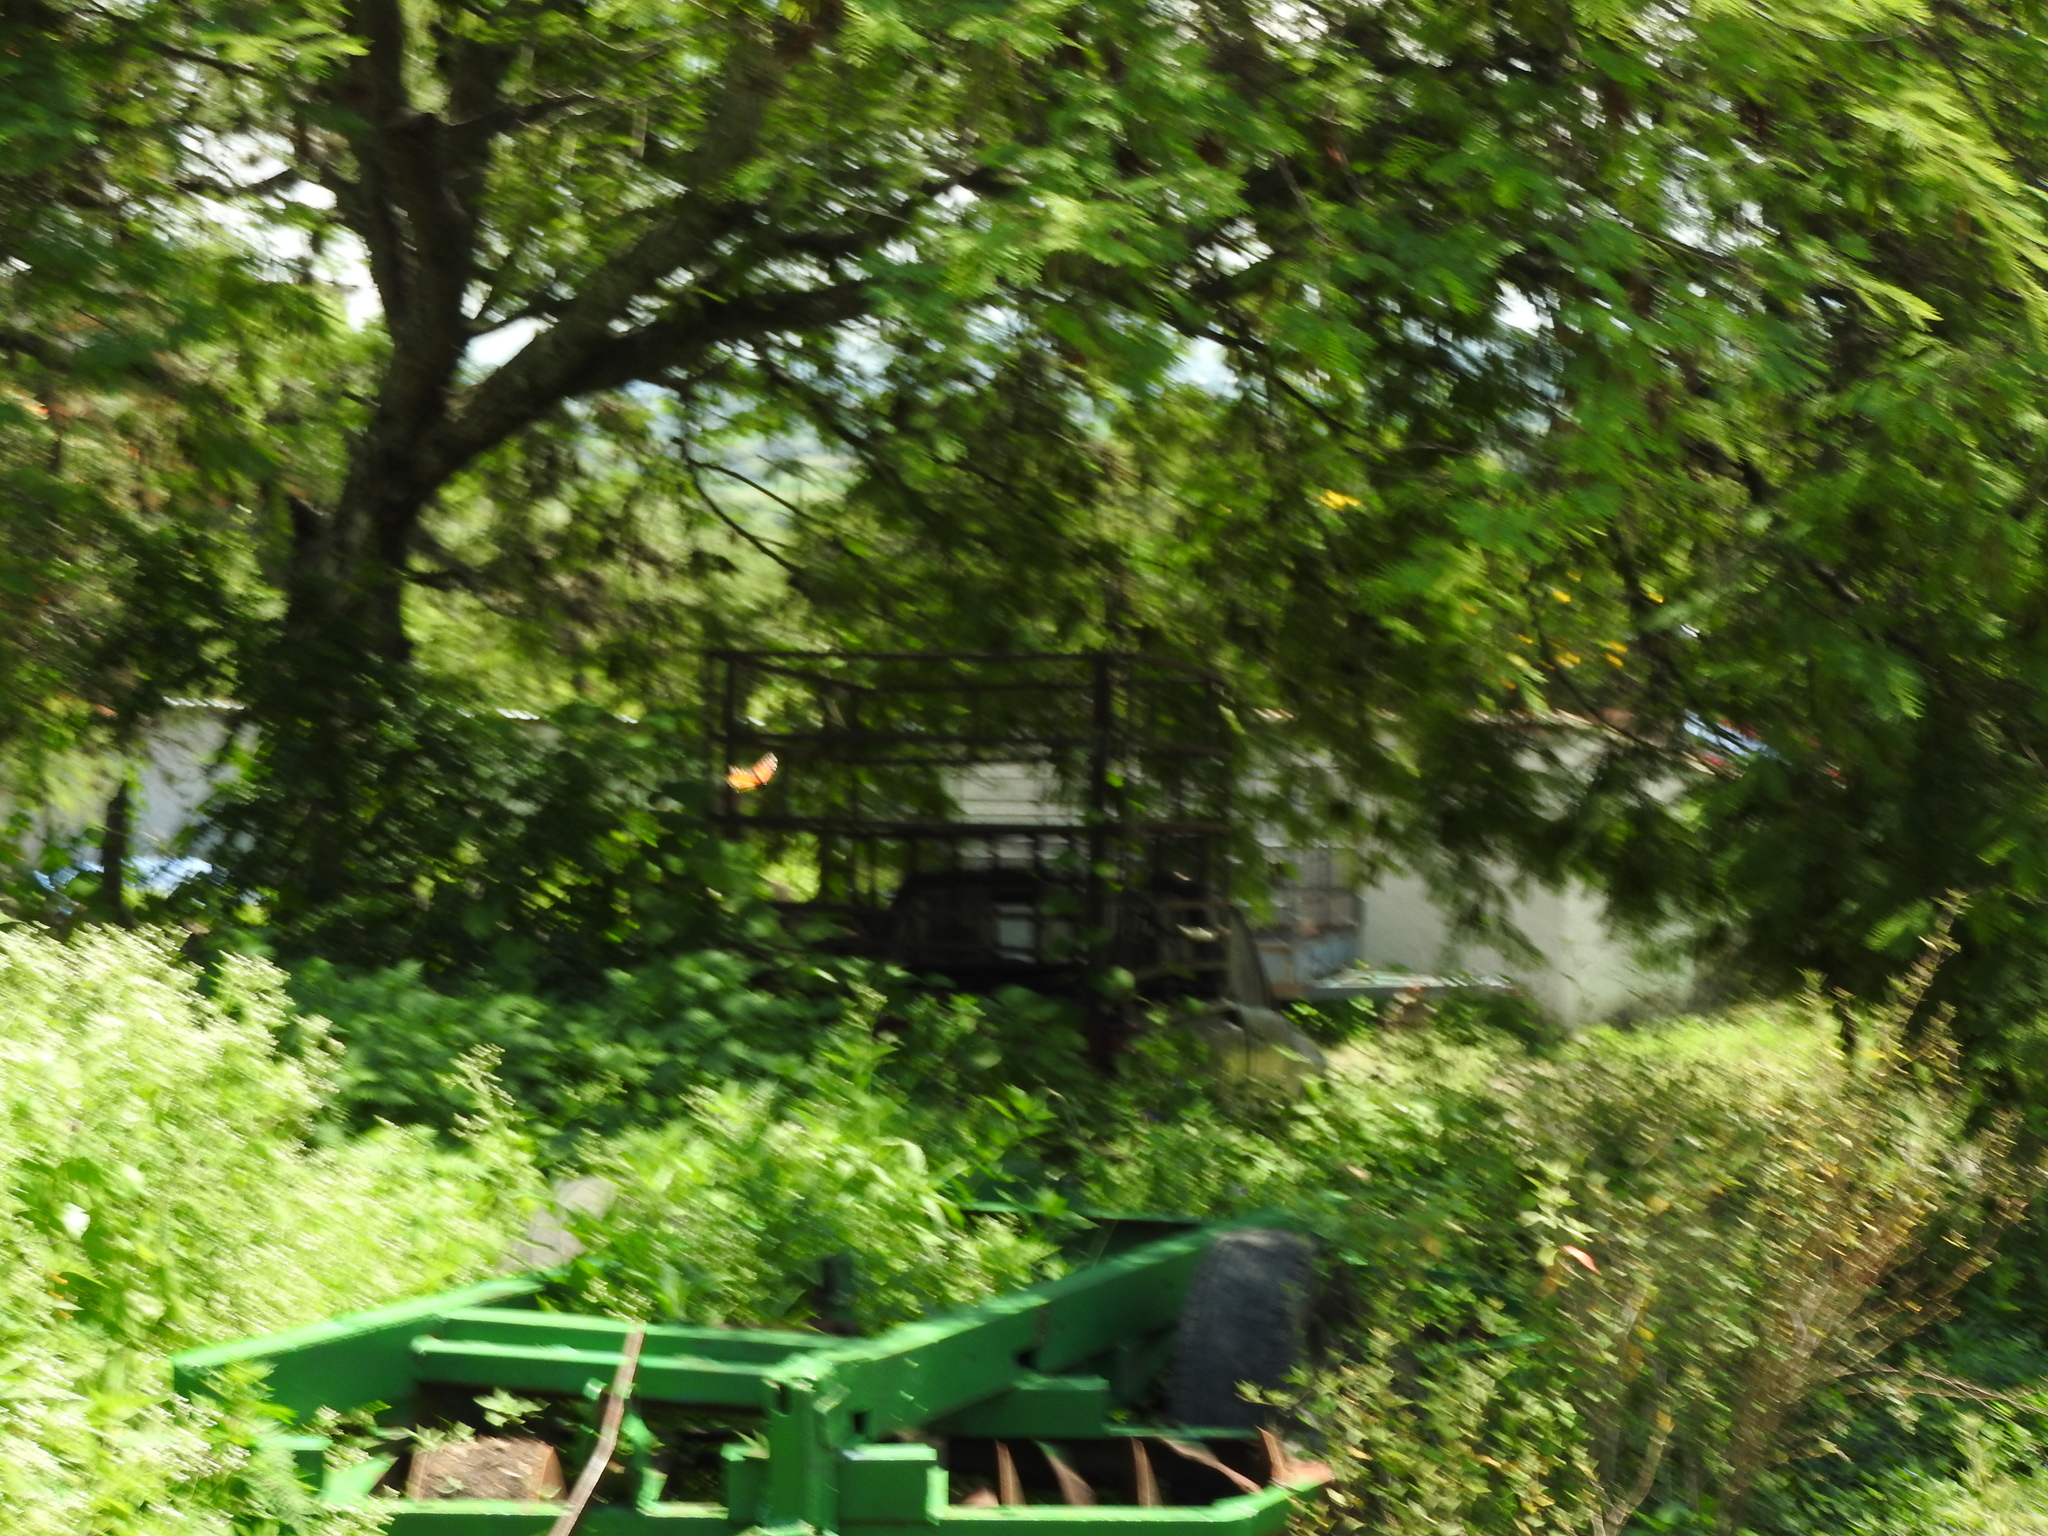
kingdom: Animalia
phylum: Arthropoda
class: Insecta
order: Lepidoptera
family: Nymphalidae
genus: Danaus
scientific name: Danaus plexippus
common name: Monarch
